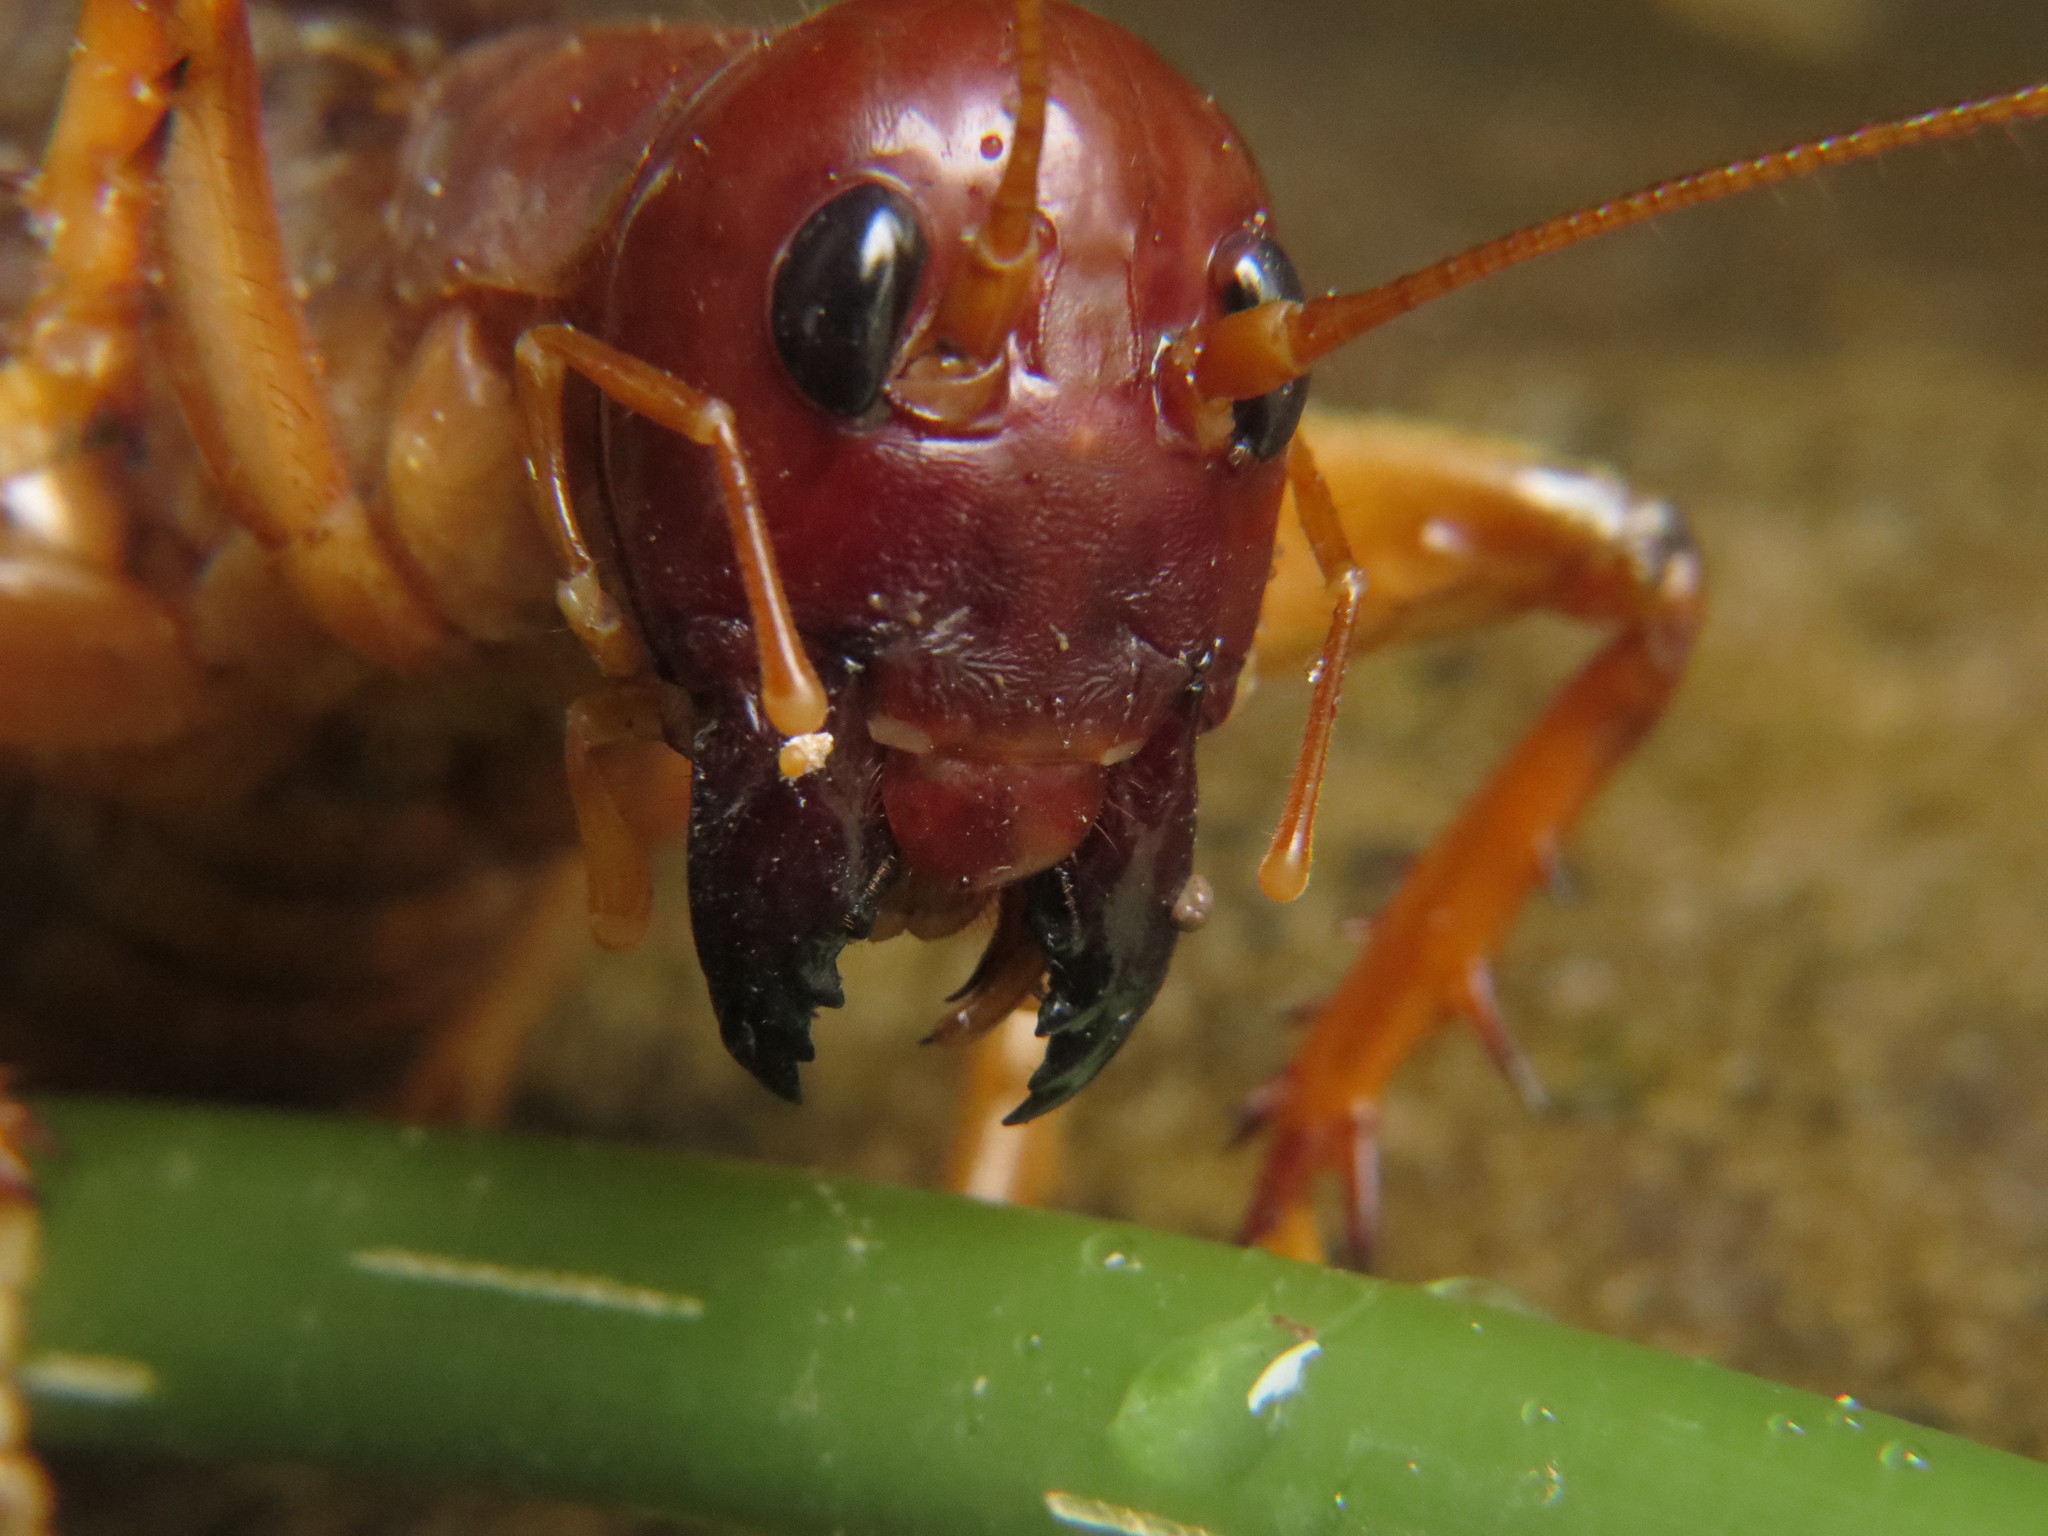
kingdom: Animalia
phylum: Arthropoda
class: Insecta
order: Orthoptera
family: Stenopelmatidae
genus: Sia
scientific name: Sia incisa
